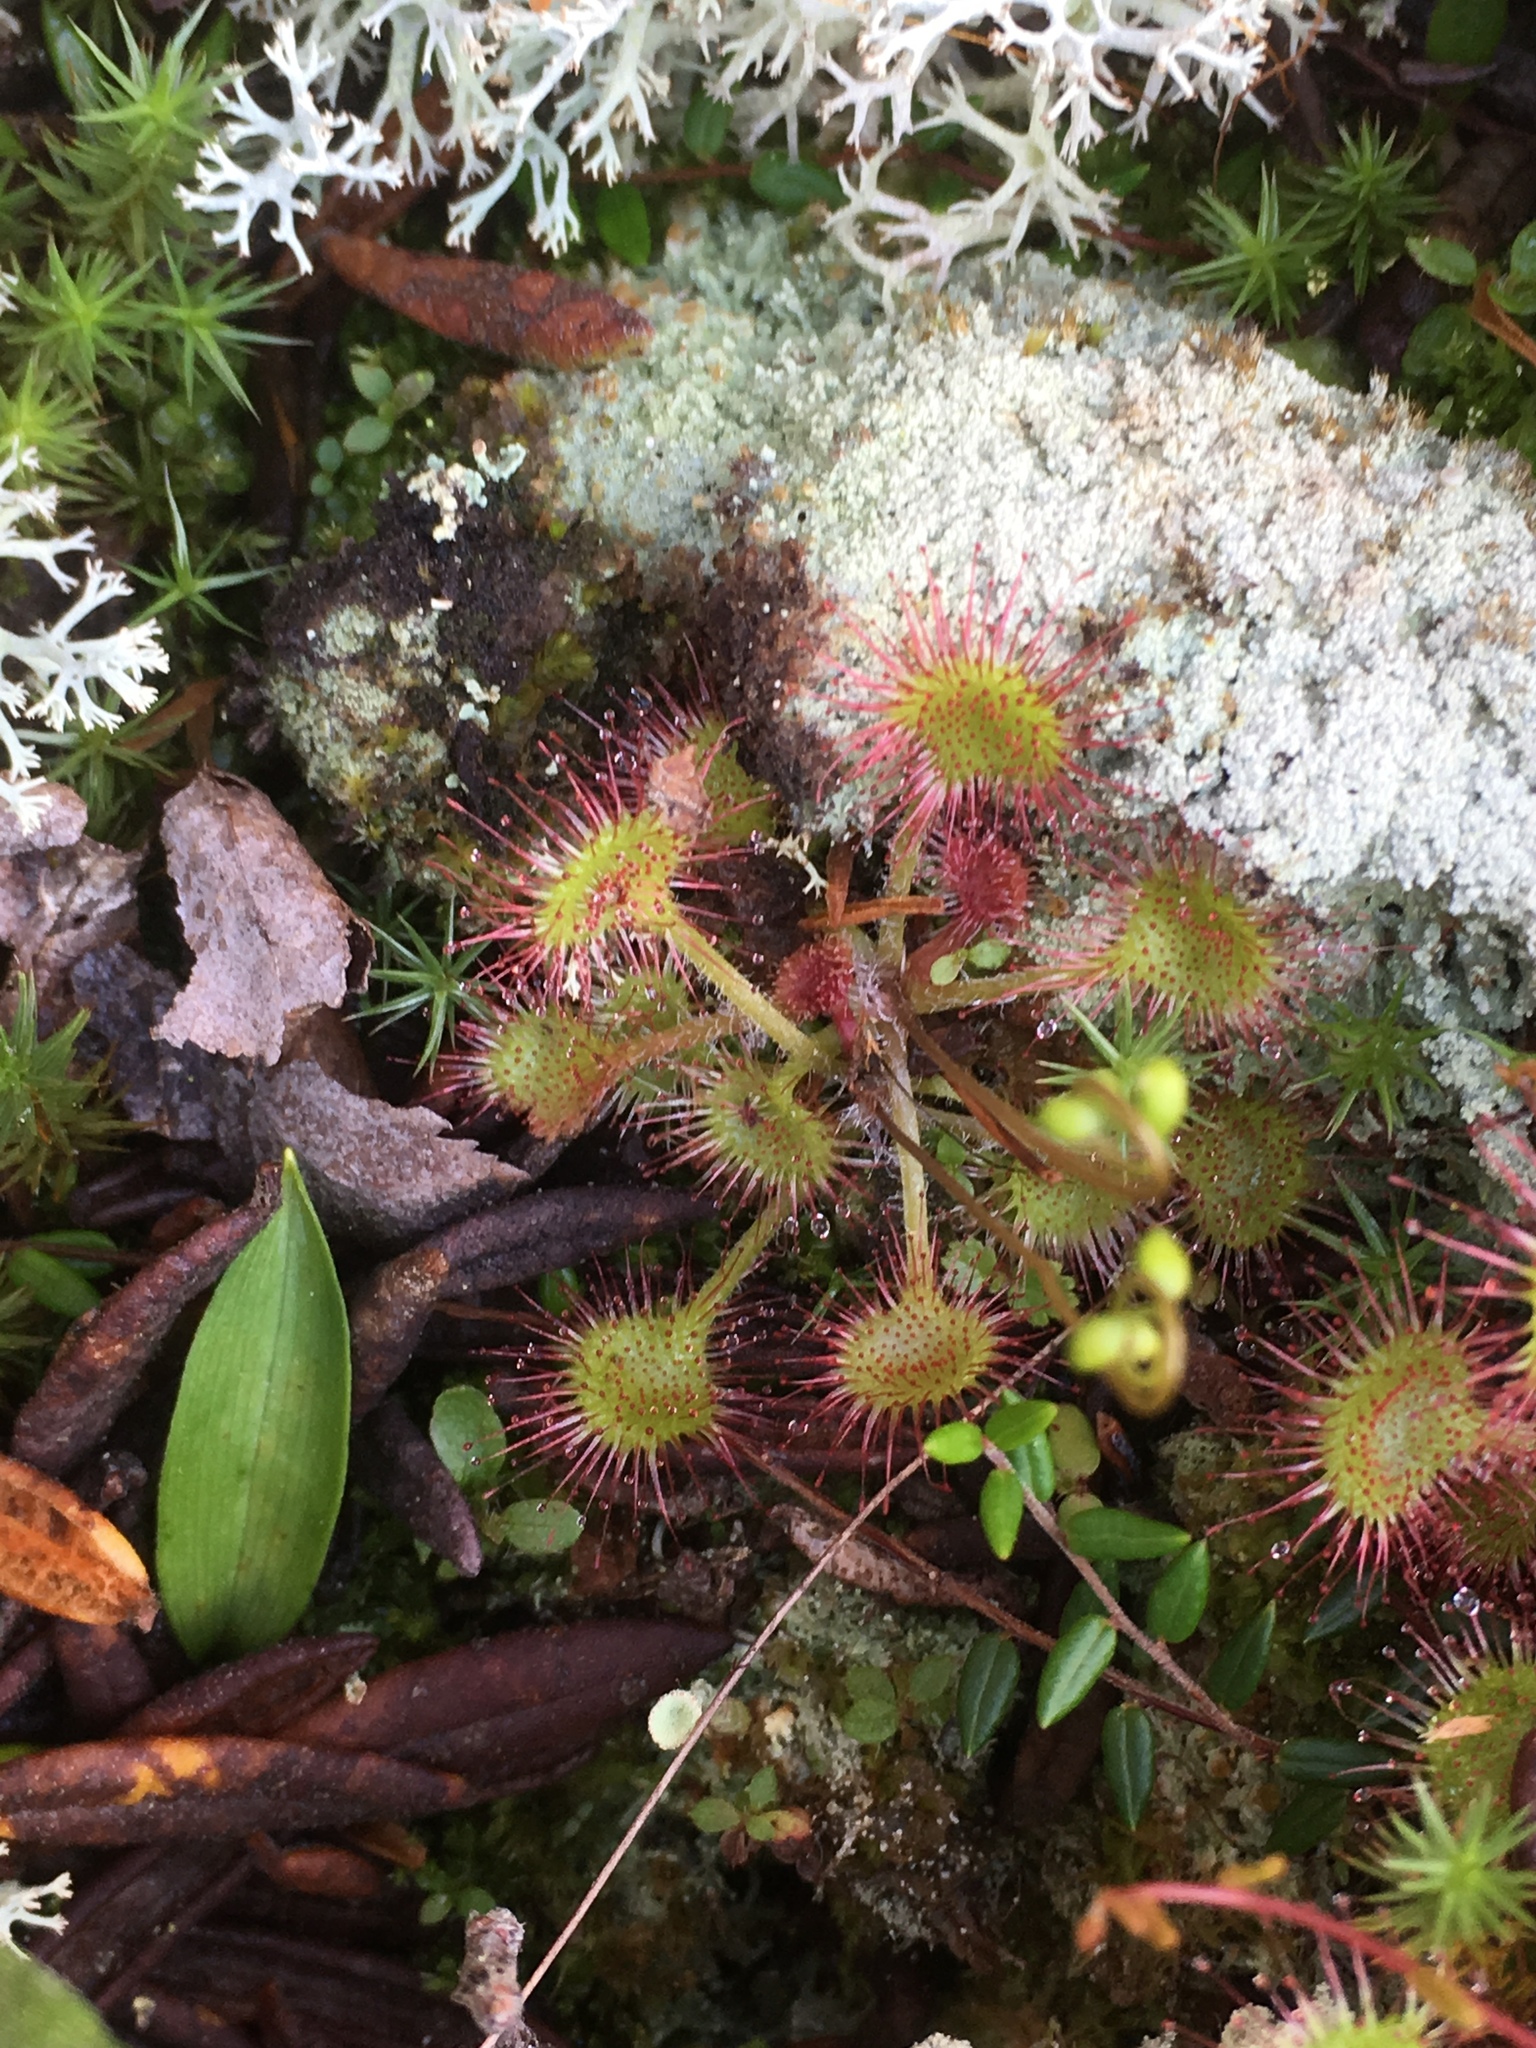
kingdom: Plantae
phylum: Tracheophyta
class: Magnoliopsida
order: Caryophyllales
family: Droseraceae
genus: Drosera
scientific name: Drosera rotundifolia
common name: Round-leaved sundew
